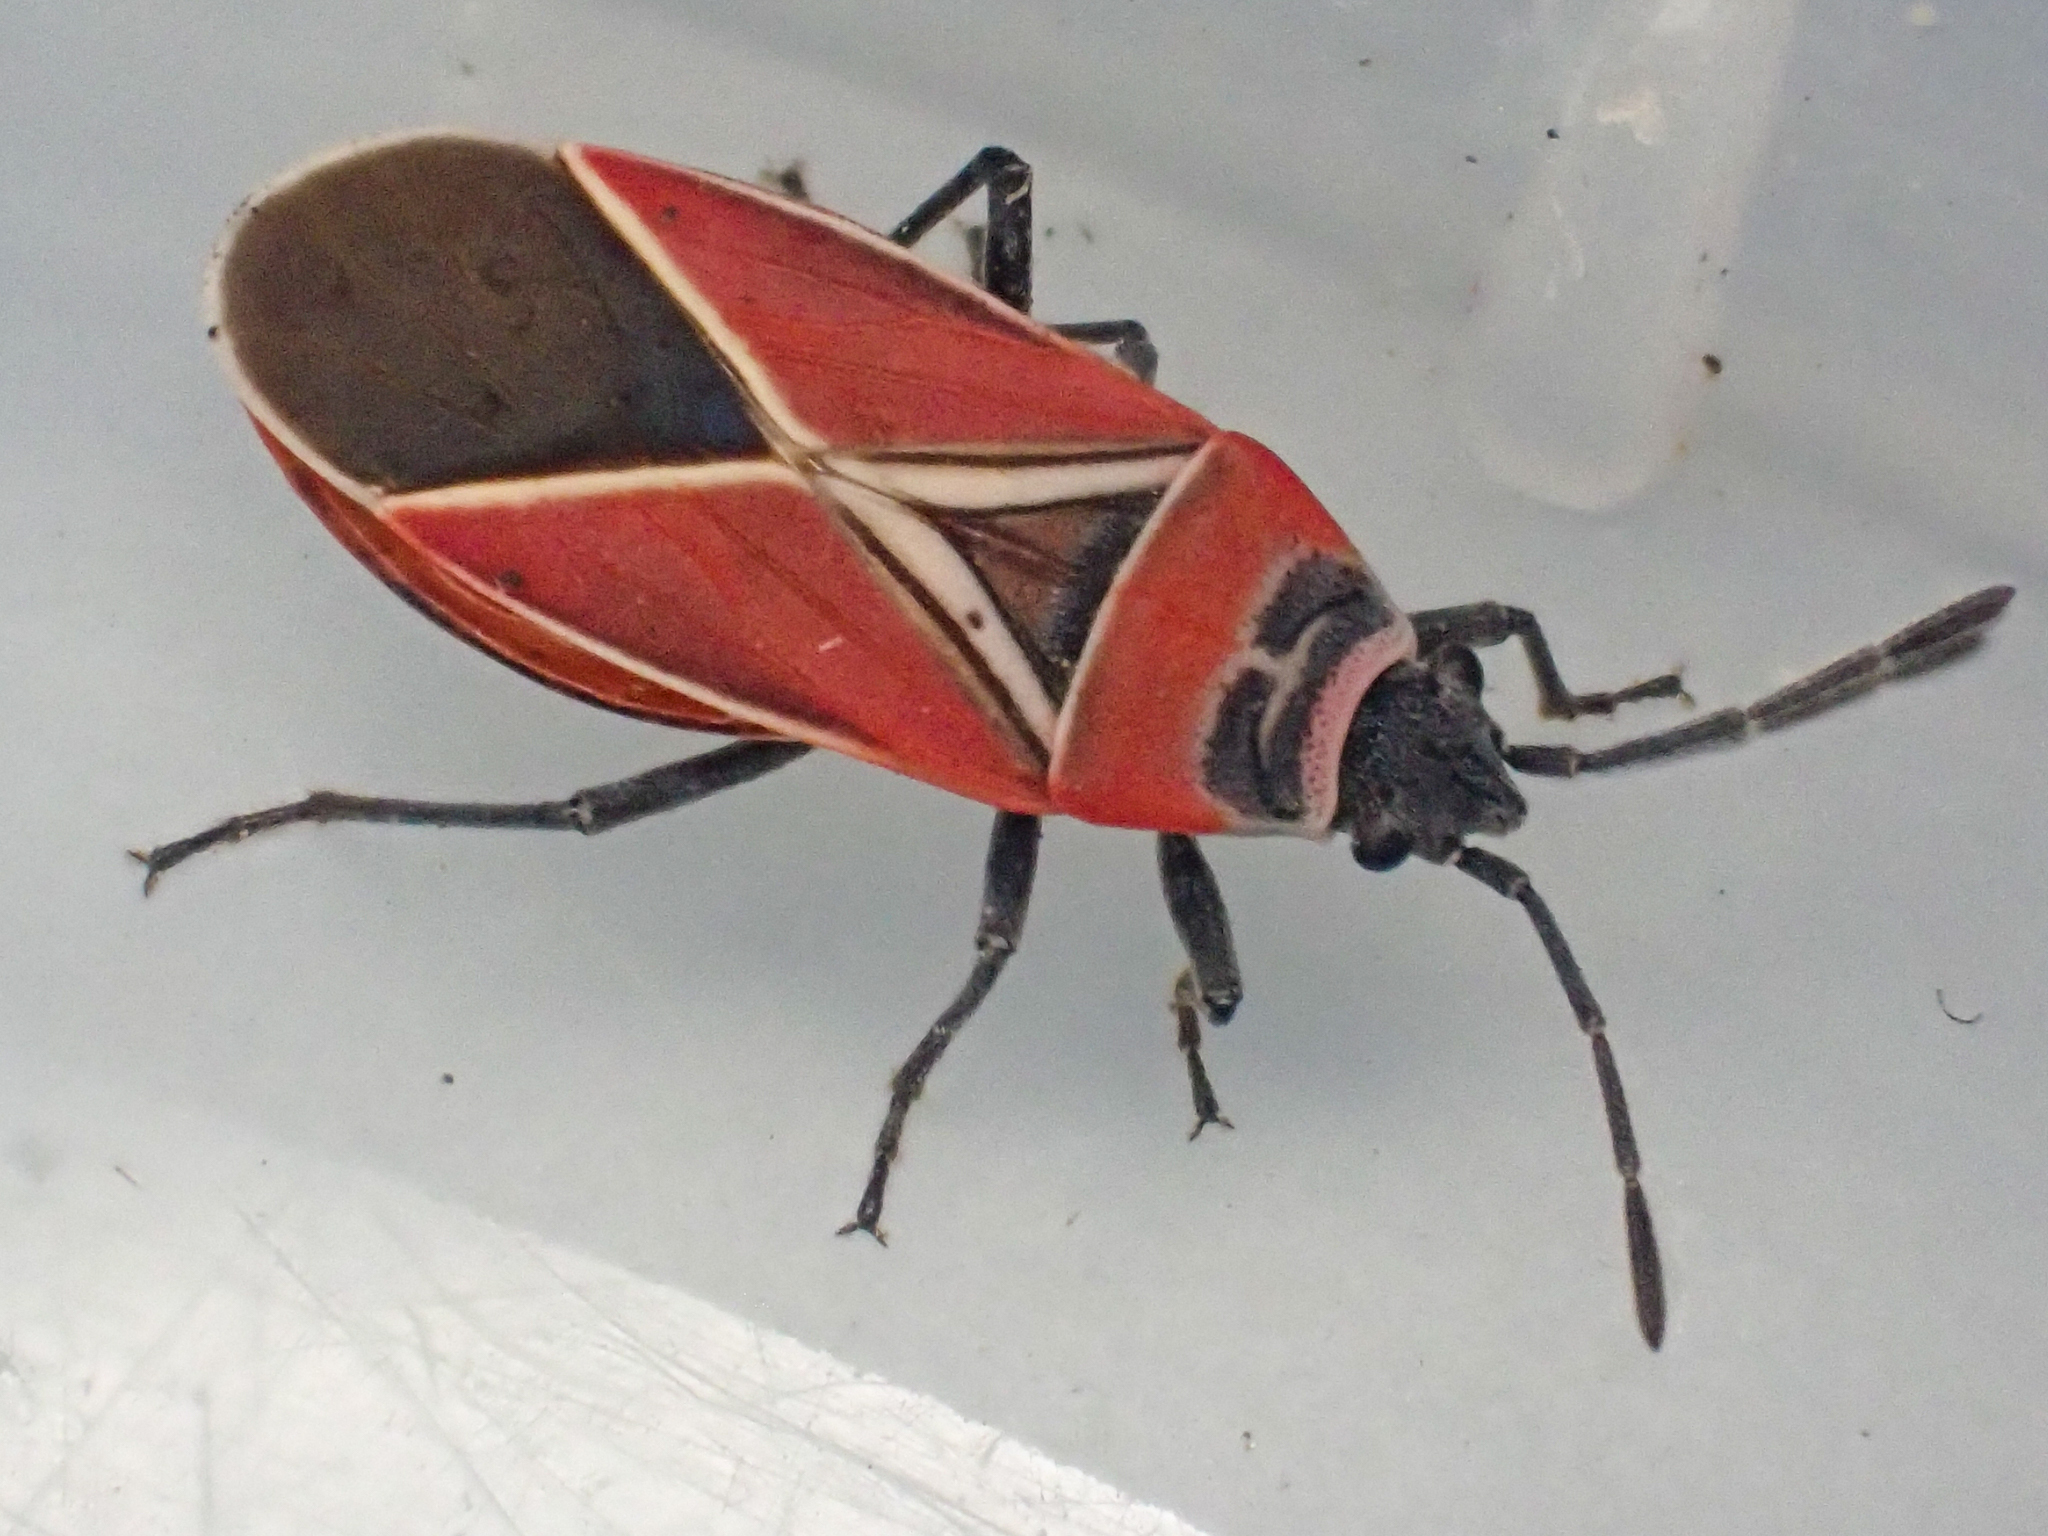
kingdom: Animalia
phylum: Arthropoda
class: Insecta
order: Hemiptera
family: Lygaeidae
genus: Neacoryphus
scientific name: Neacoryphus bicrucis
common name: Lygaeid bug
